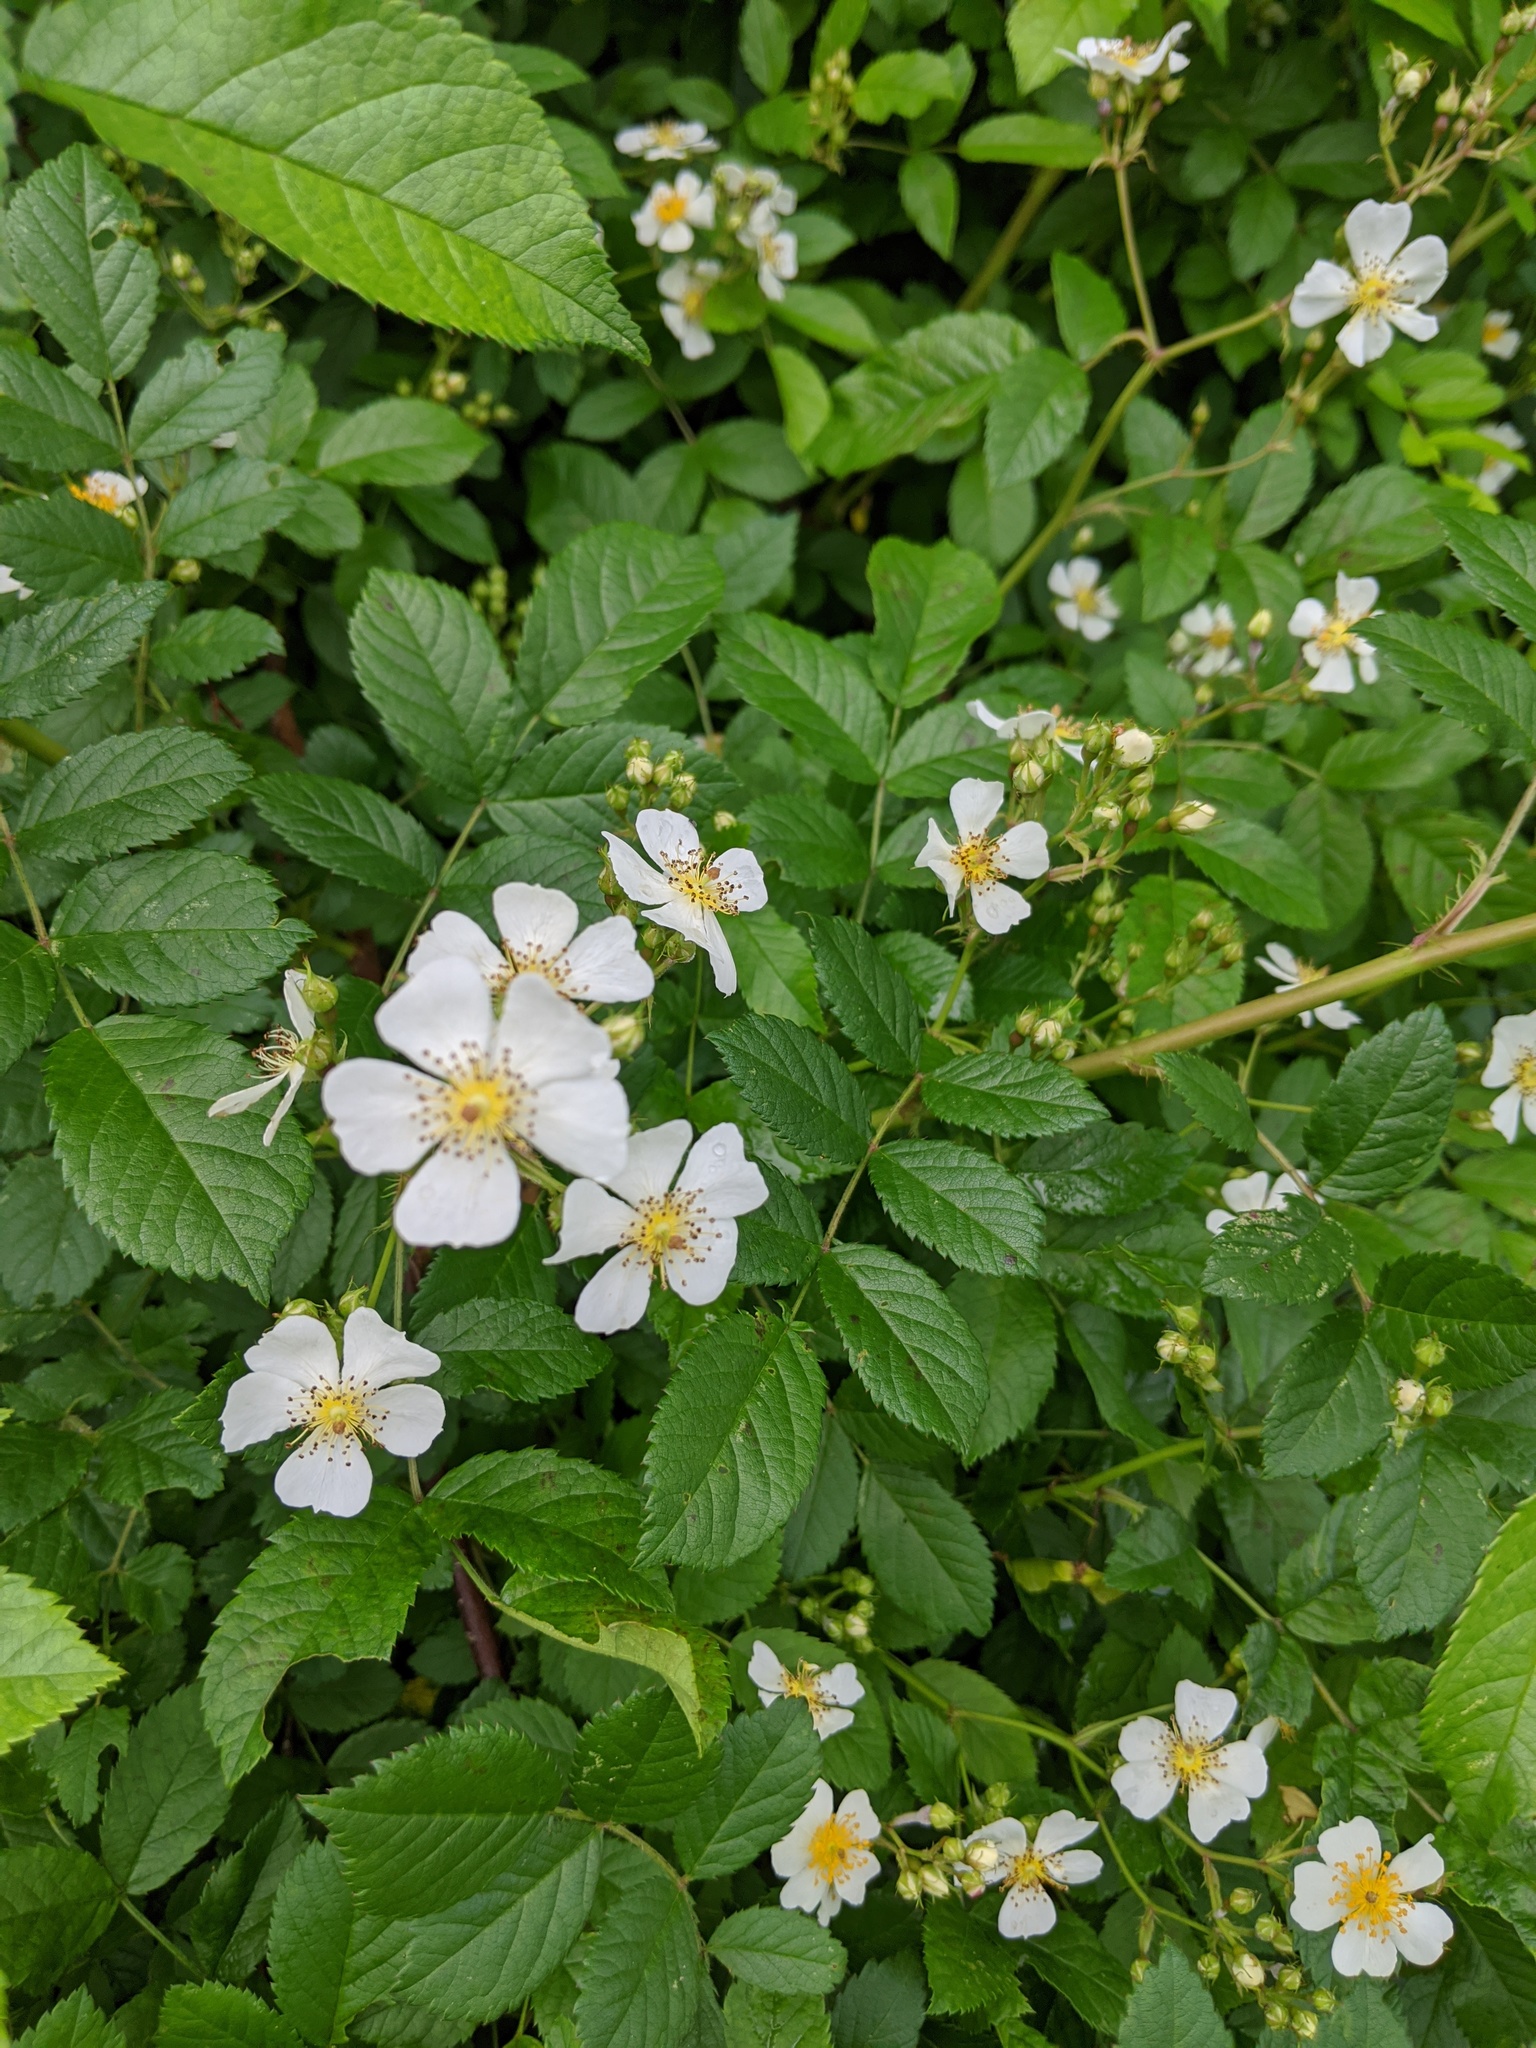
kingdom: Plantae
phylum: Tracheophyta
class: Magnoliopsida
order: Rosales
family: Rosaceae
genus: Rosa
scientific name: Rosa multiflora
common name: Multiflora rose
